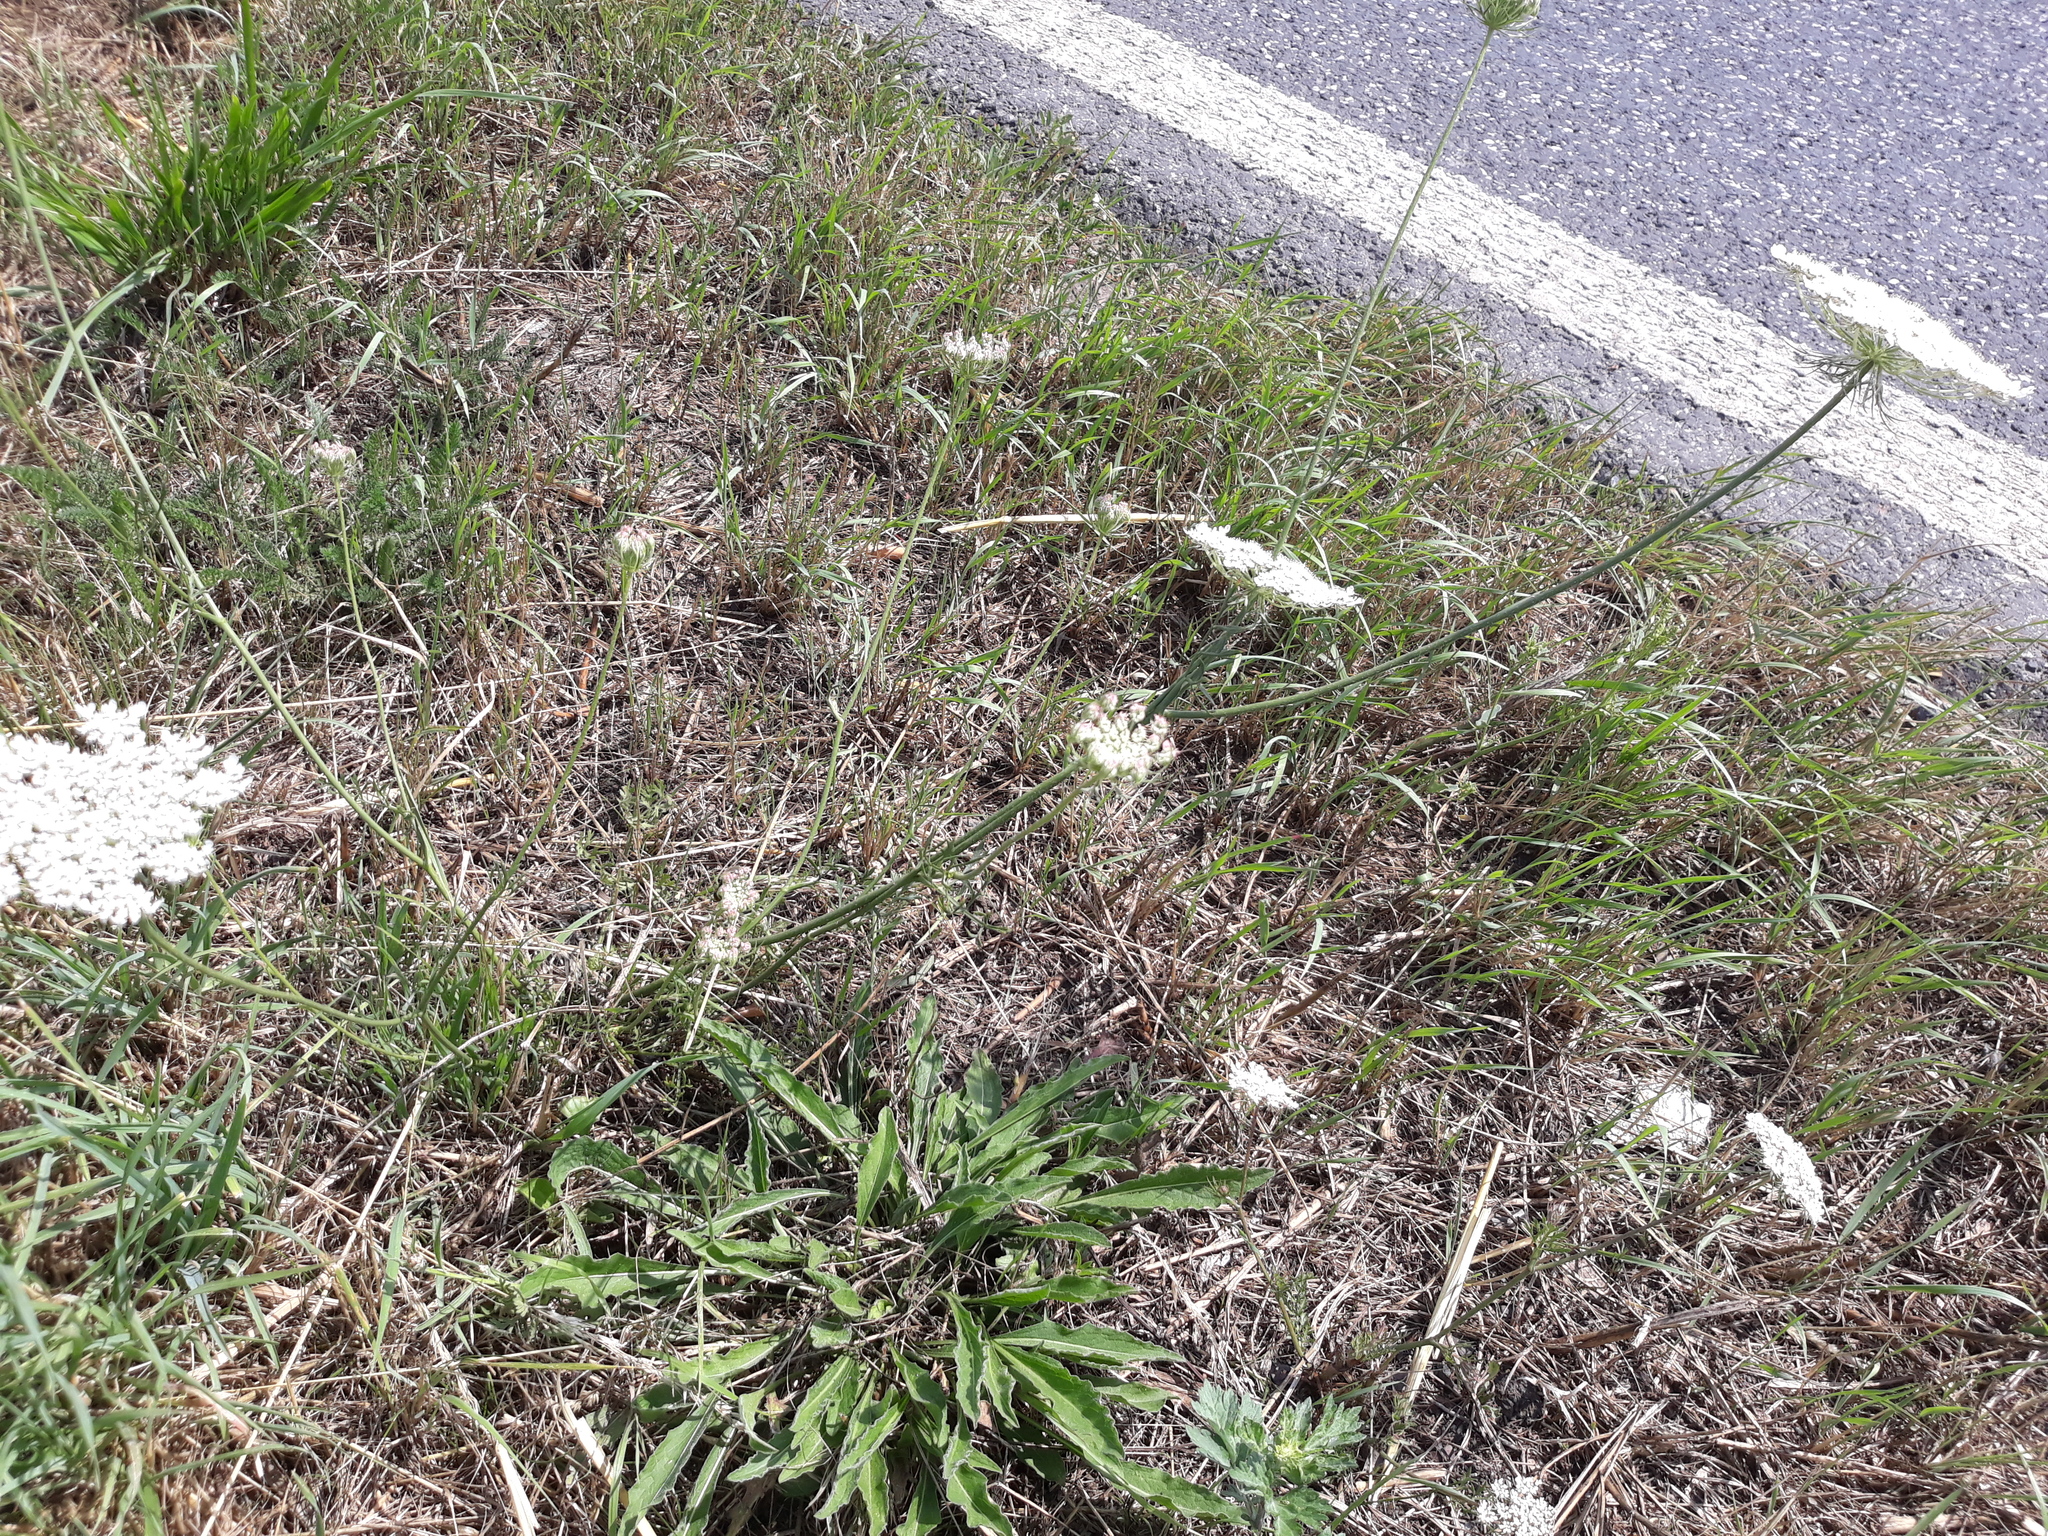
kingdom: Plantae
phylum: Tracheophyta
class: Magnoliopsida
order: Apiales
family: Apiaceae
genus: Daucus
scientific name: Daucus carota
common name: Wild carrot
